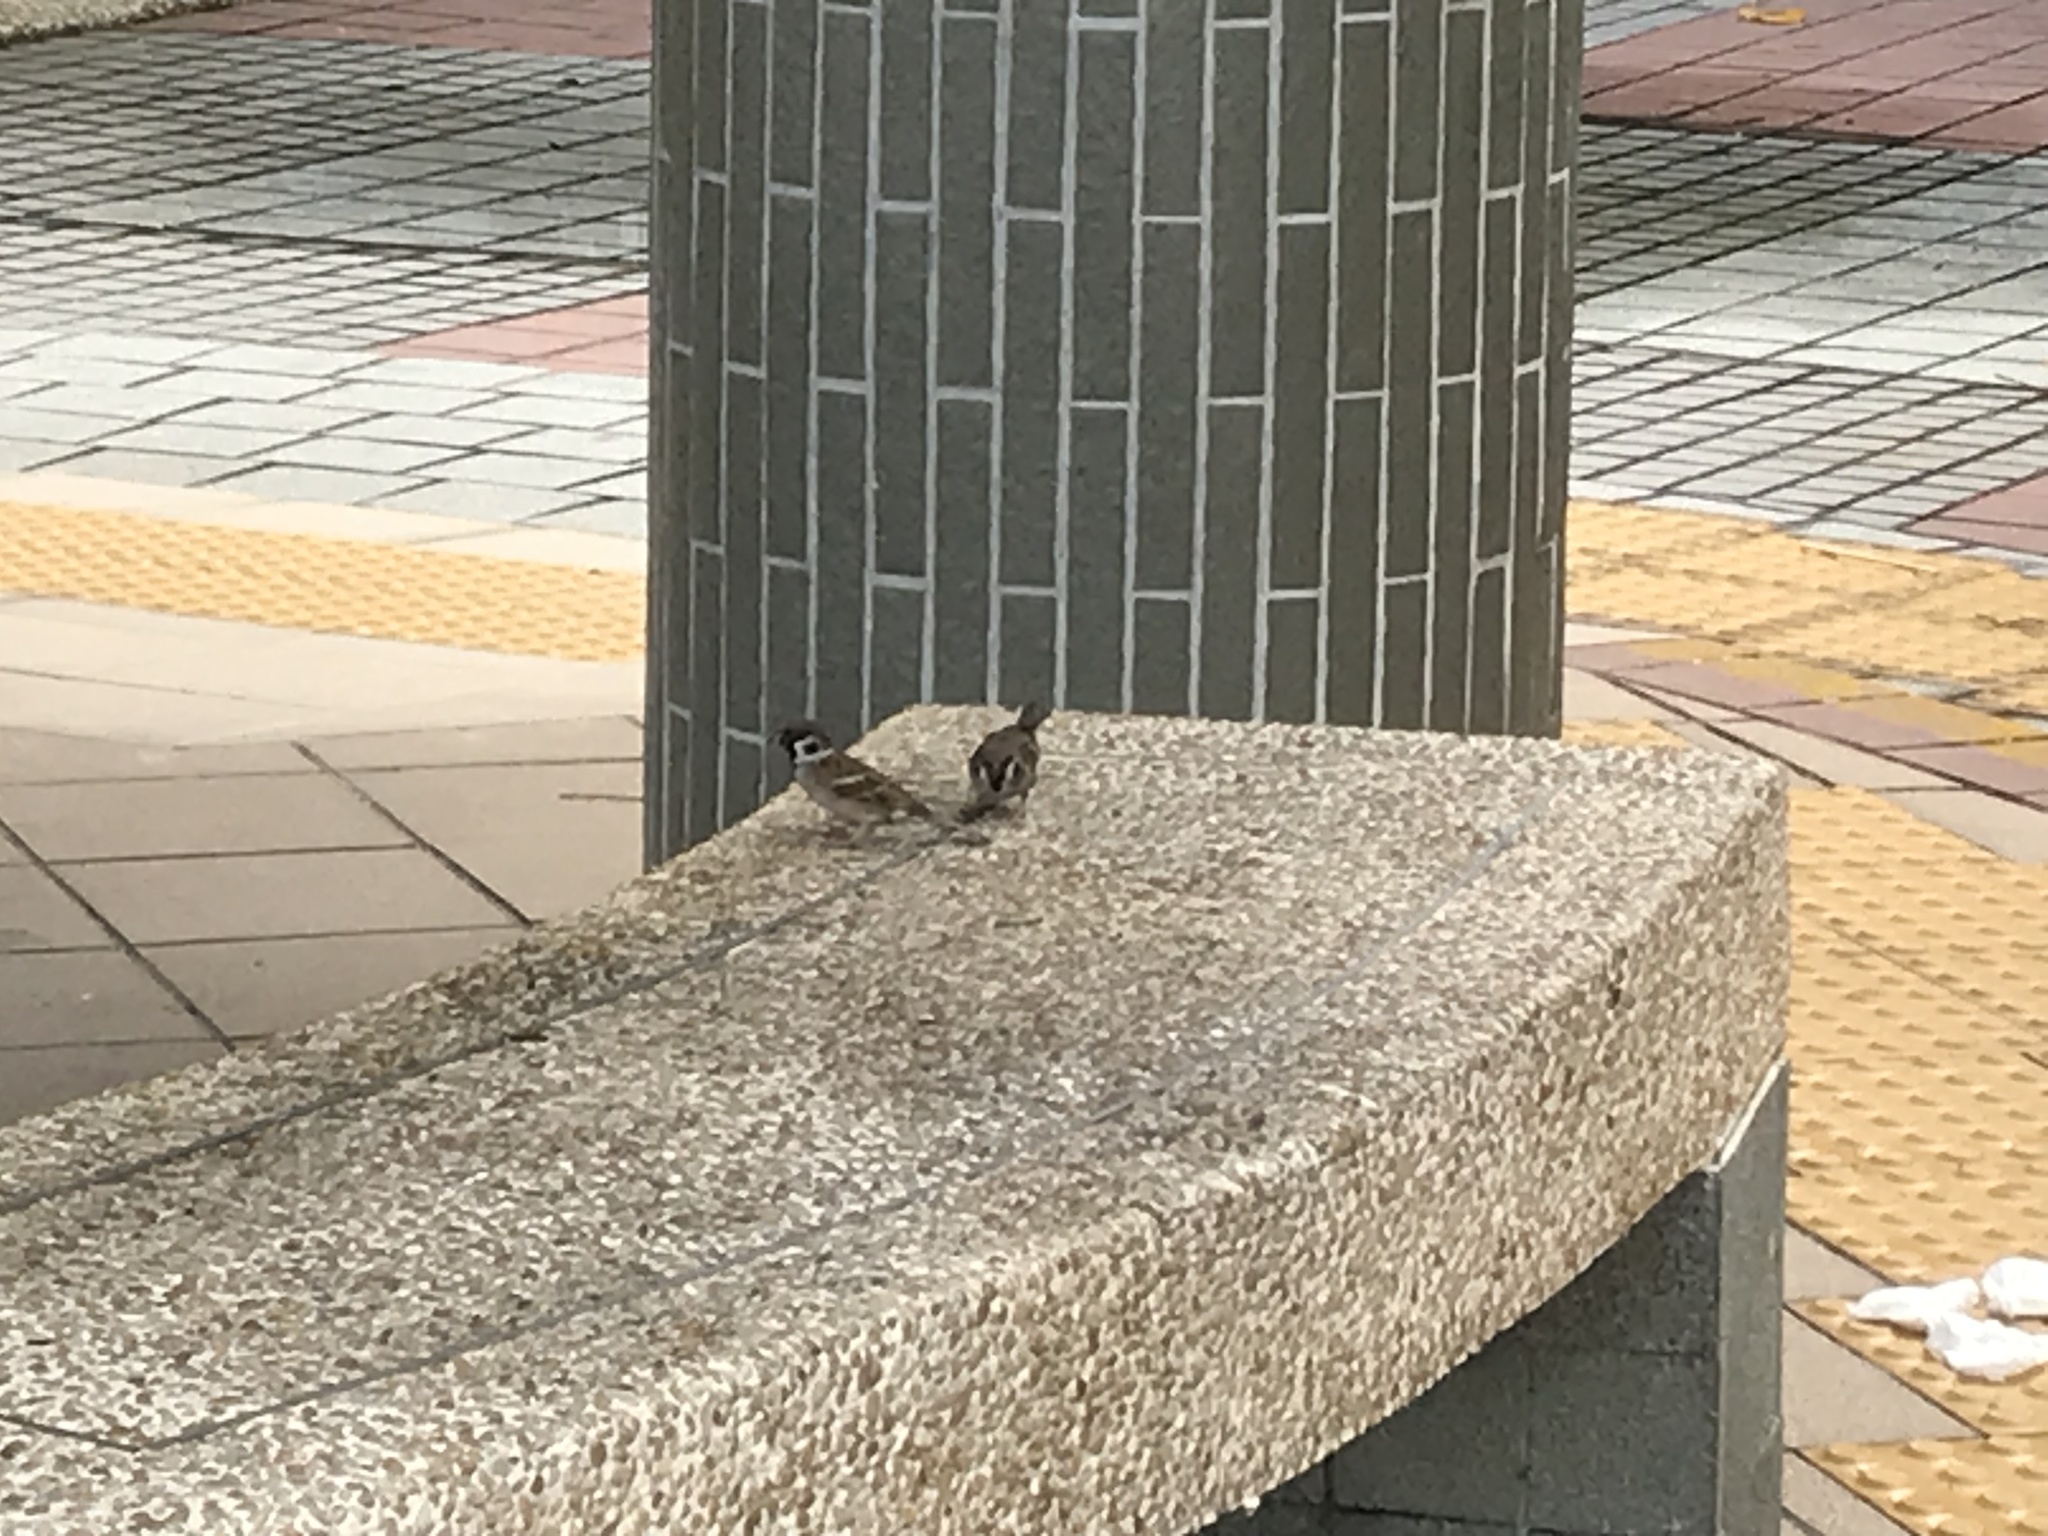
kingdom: Animalia
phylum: Chordata
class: Aves
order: Passeriformes
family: Passeridae
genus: Passer
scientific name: Passer montanus
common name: Eurasian tree sparrow
